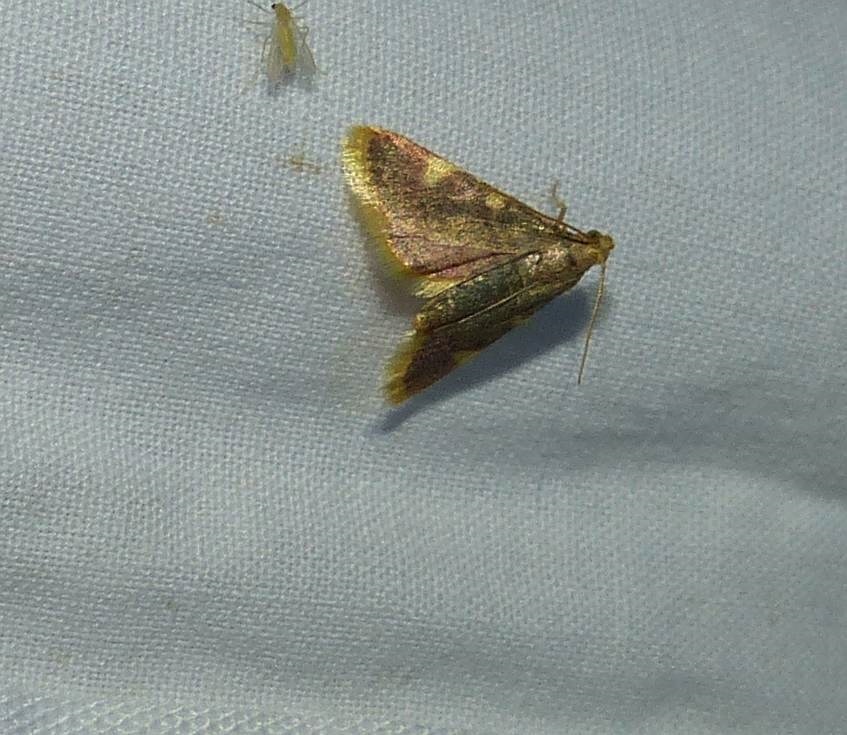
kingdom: Animalia
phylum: Arthropoda
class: Insecta
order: Lepidoptera
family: Pyralidae
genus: Hypsopygia
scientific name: Hypsopygia costalis
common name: Gold triangle
